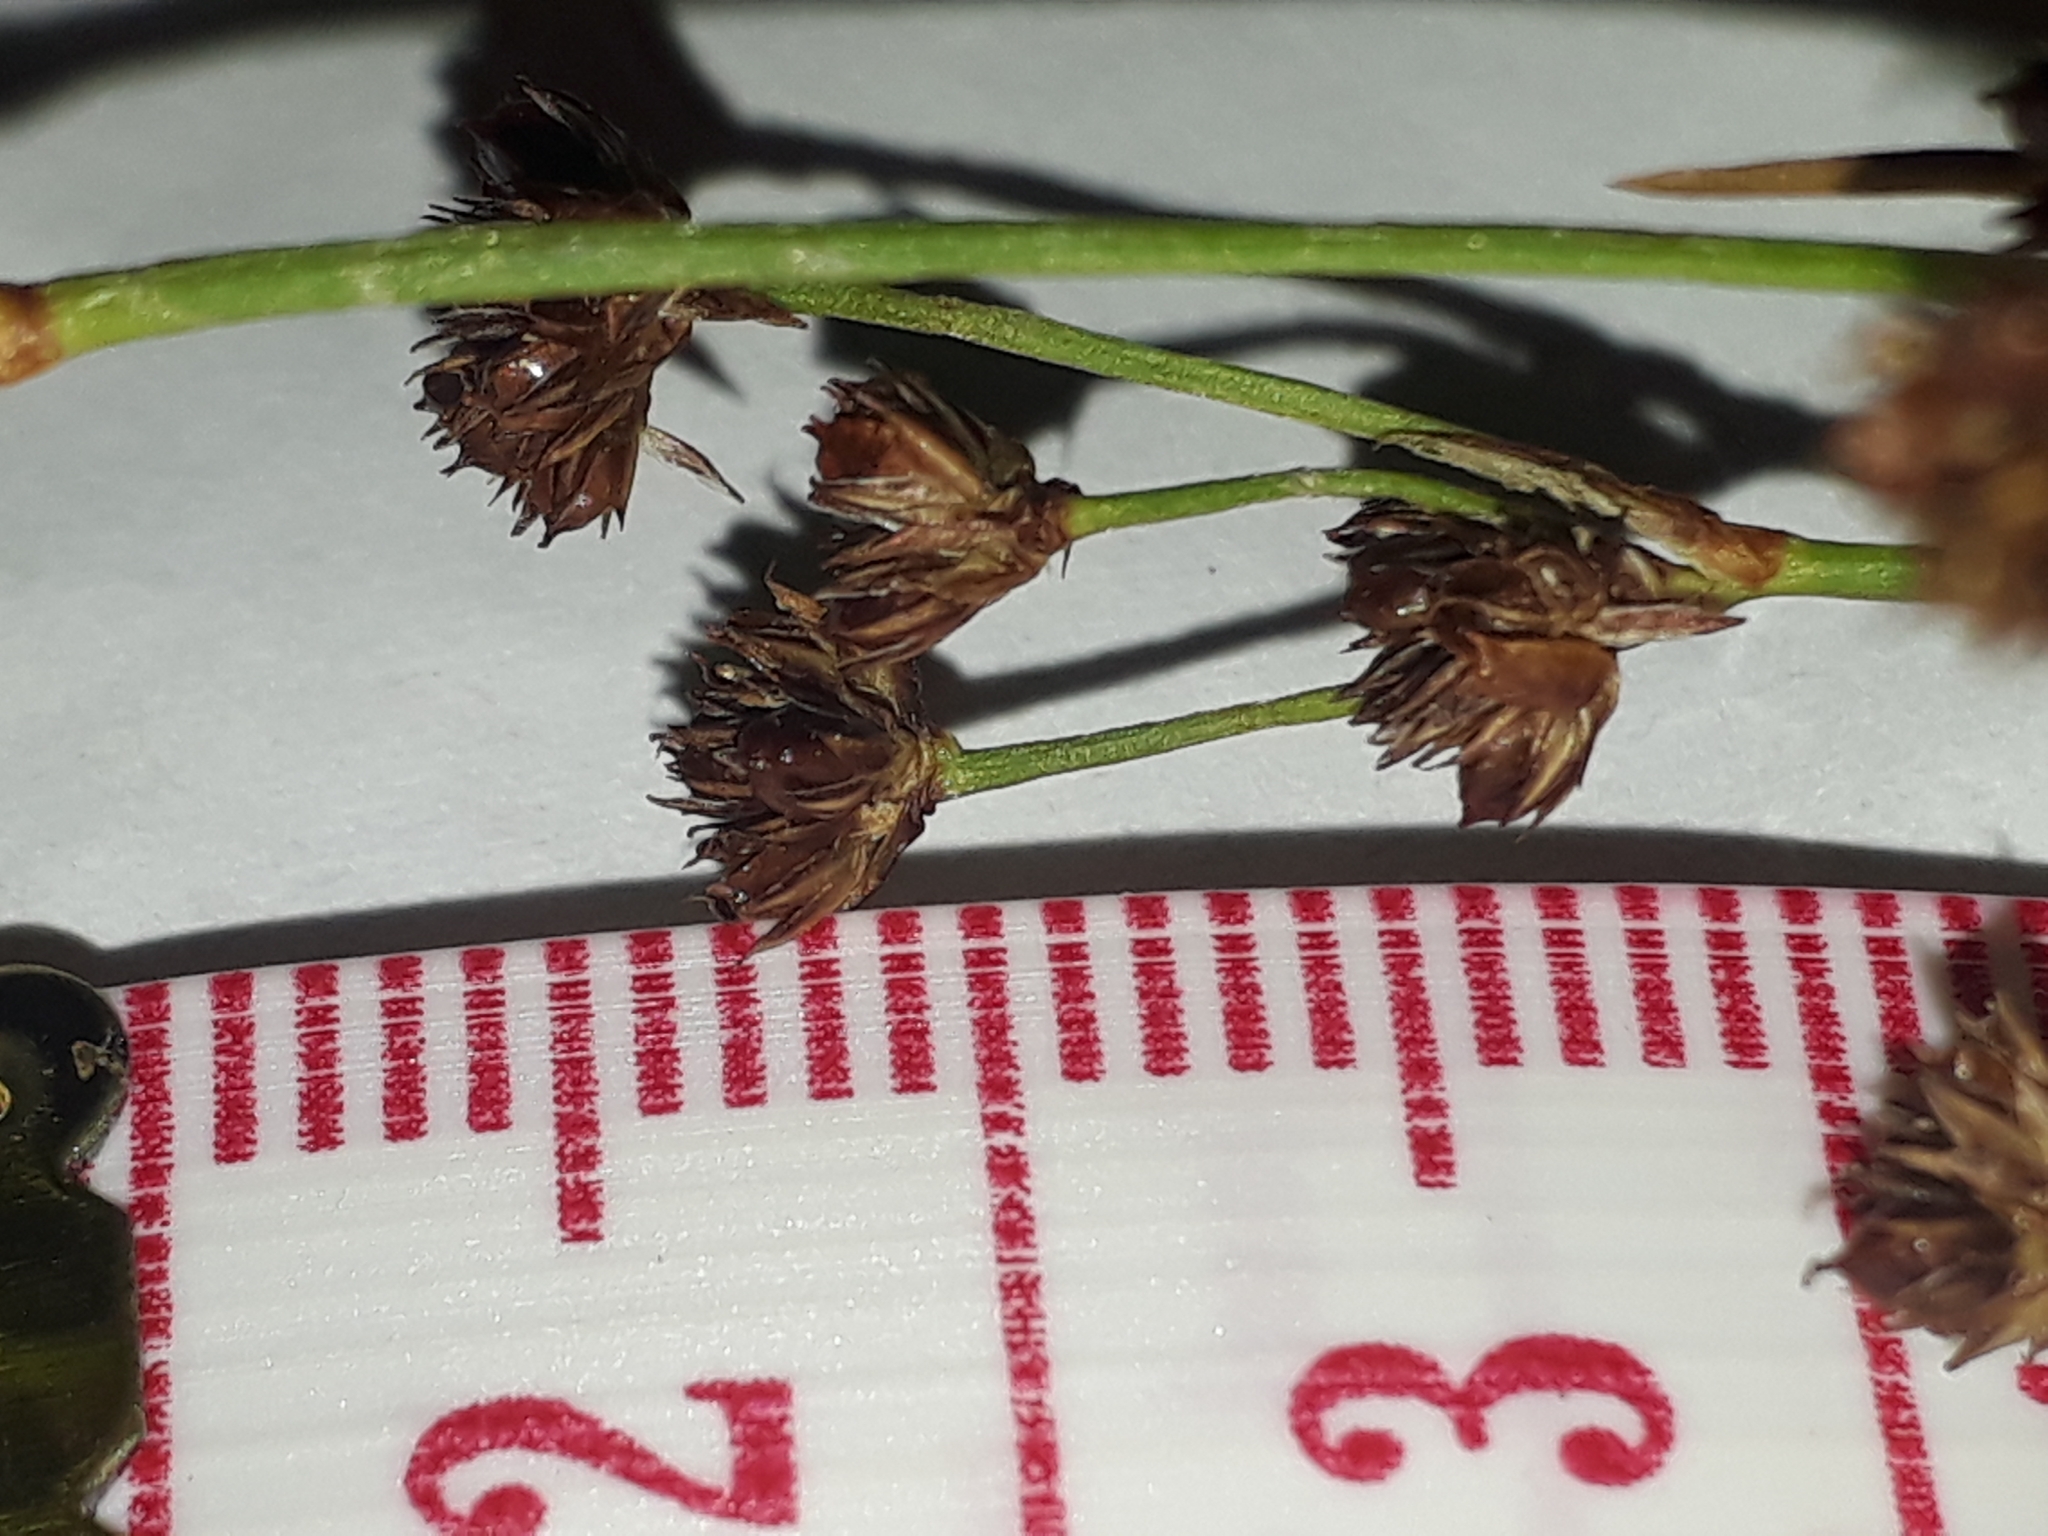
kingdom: Plantae
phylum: Tracheophyta
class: Liliopsida
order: Poales
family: Juncaceae
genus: Juncus
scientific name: Juncus planifolius
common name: Broadleaf rush
